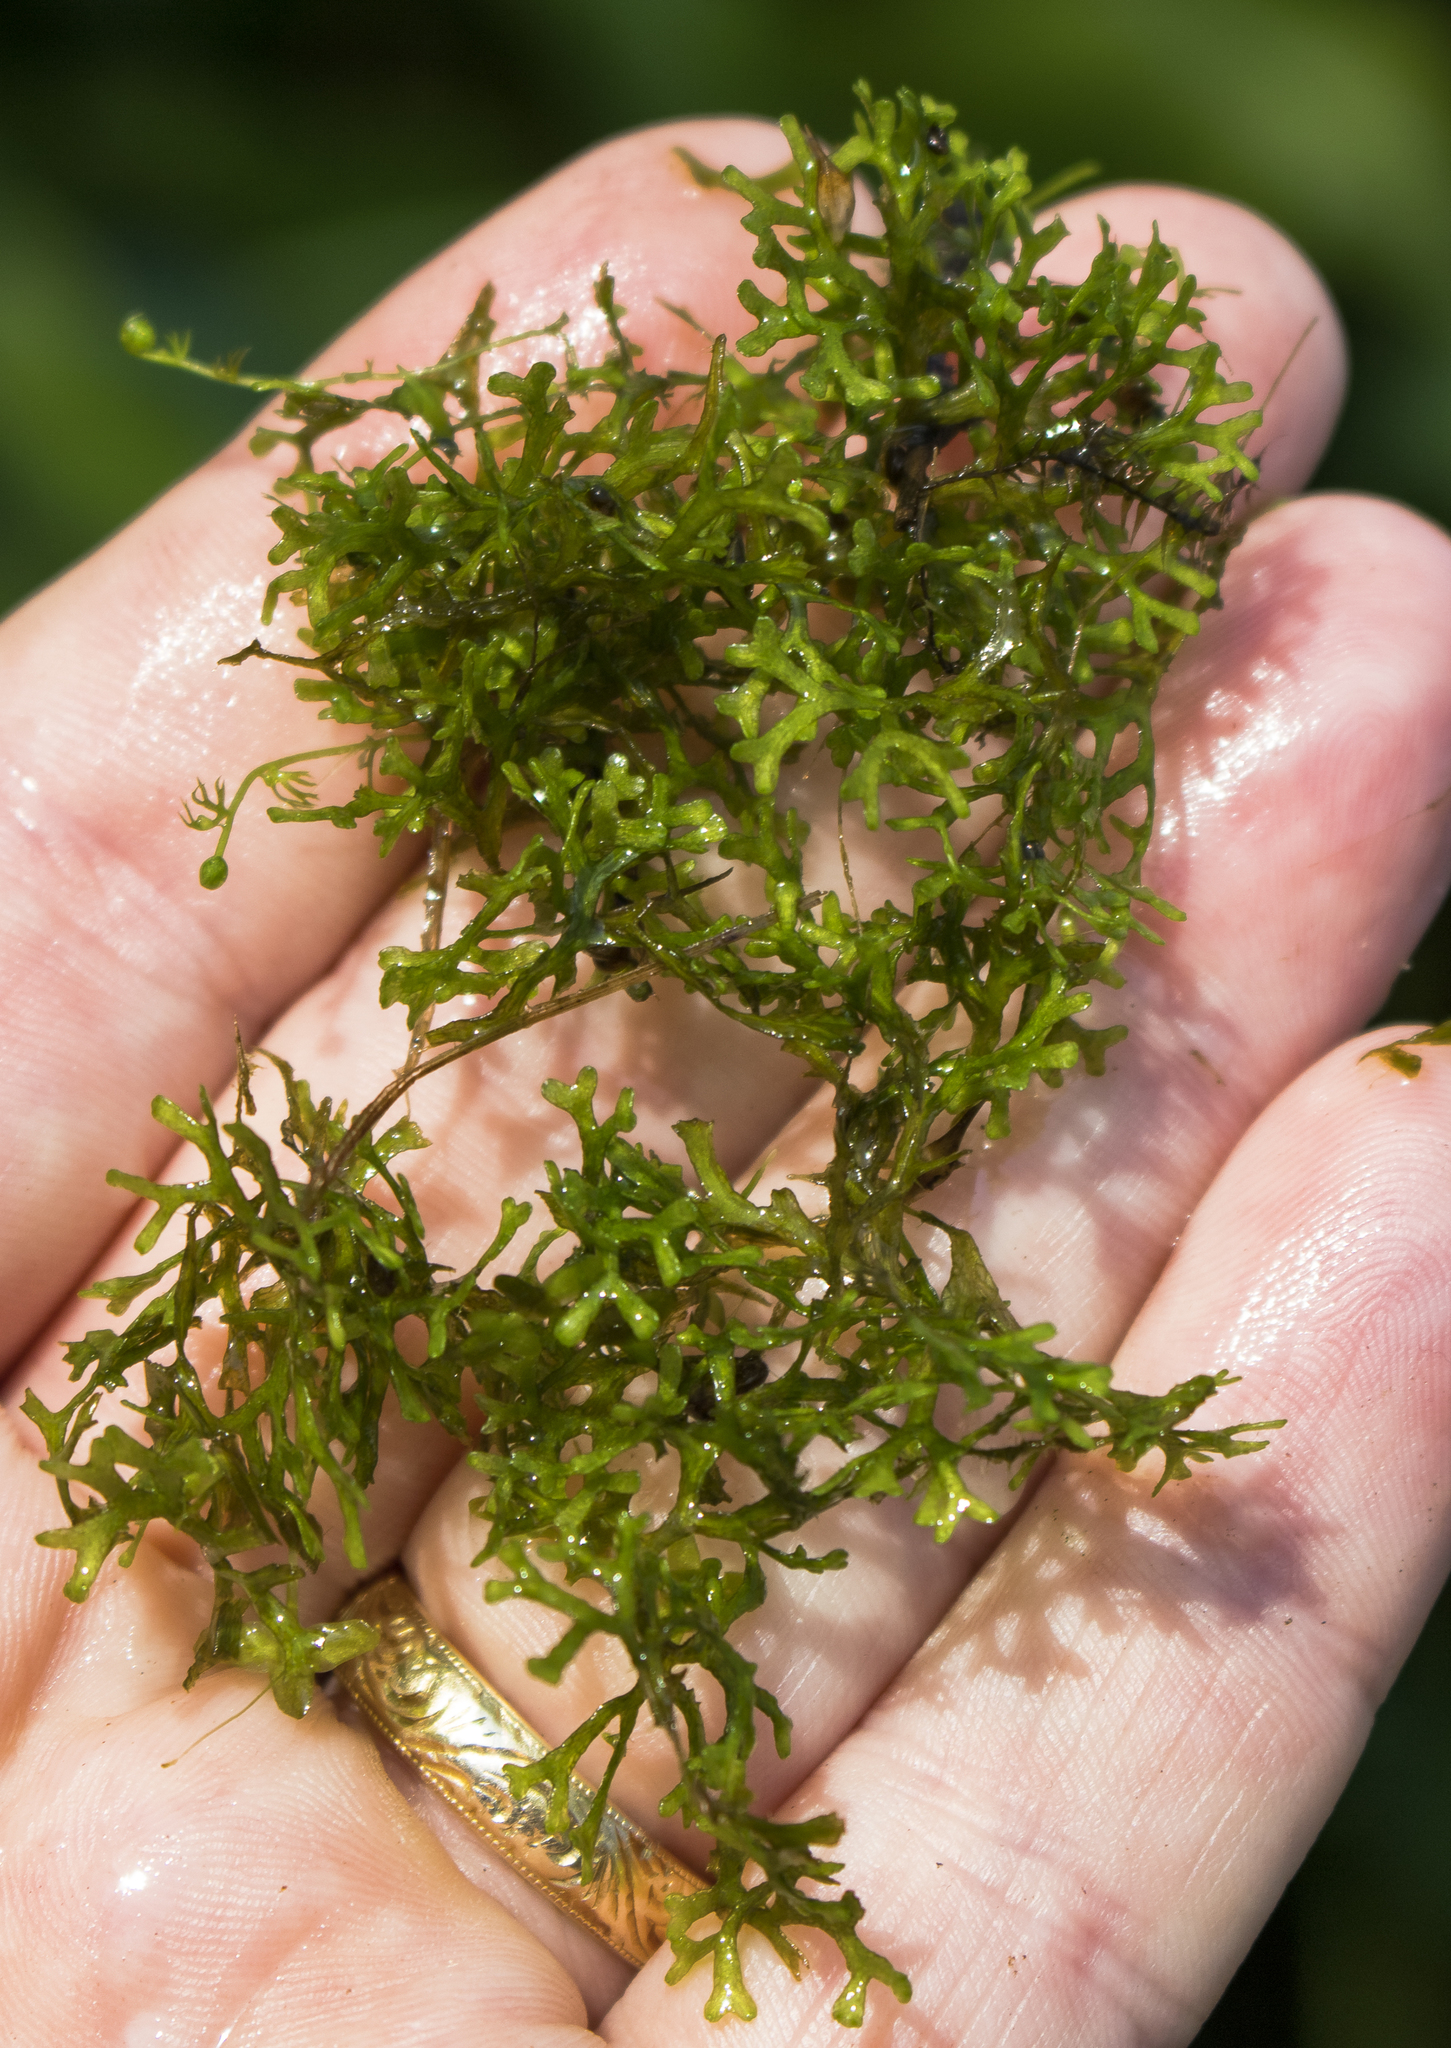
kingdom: Plantae
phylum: Marchantiophyta
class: Marchantiopsida
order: Marchantiales
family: Ricciaceae
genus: Riccia
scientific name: Riccia fluitans
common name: Floating crystalwort
